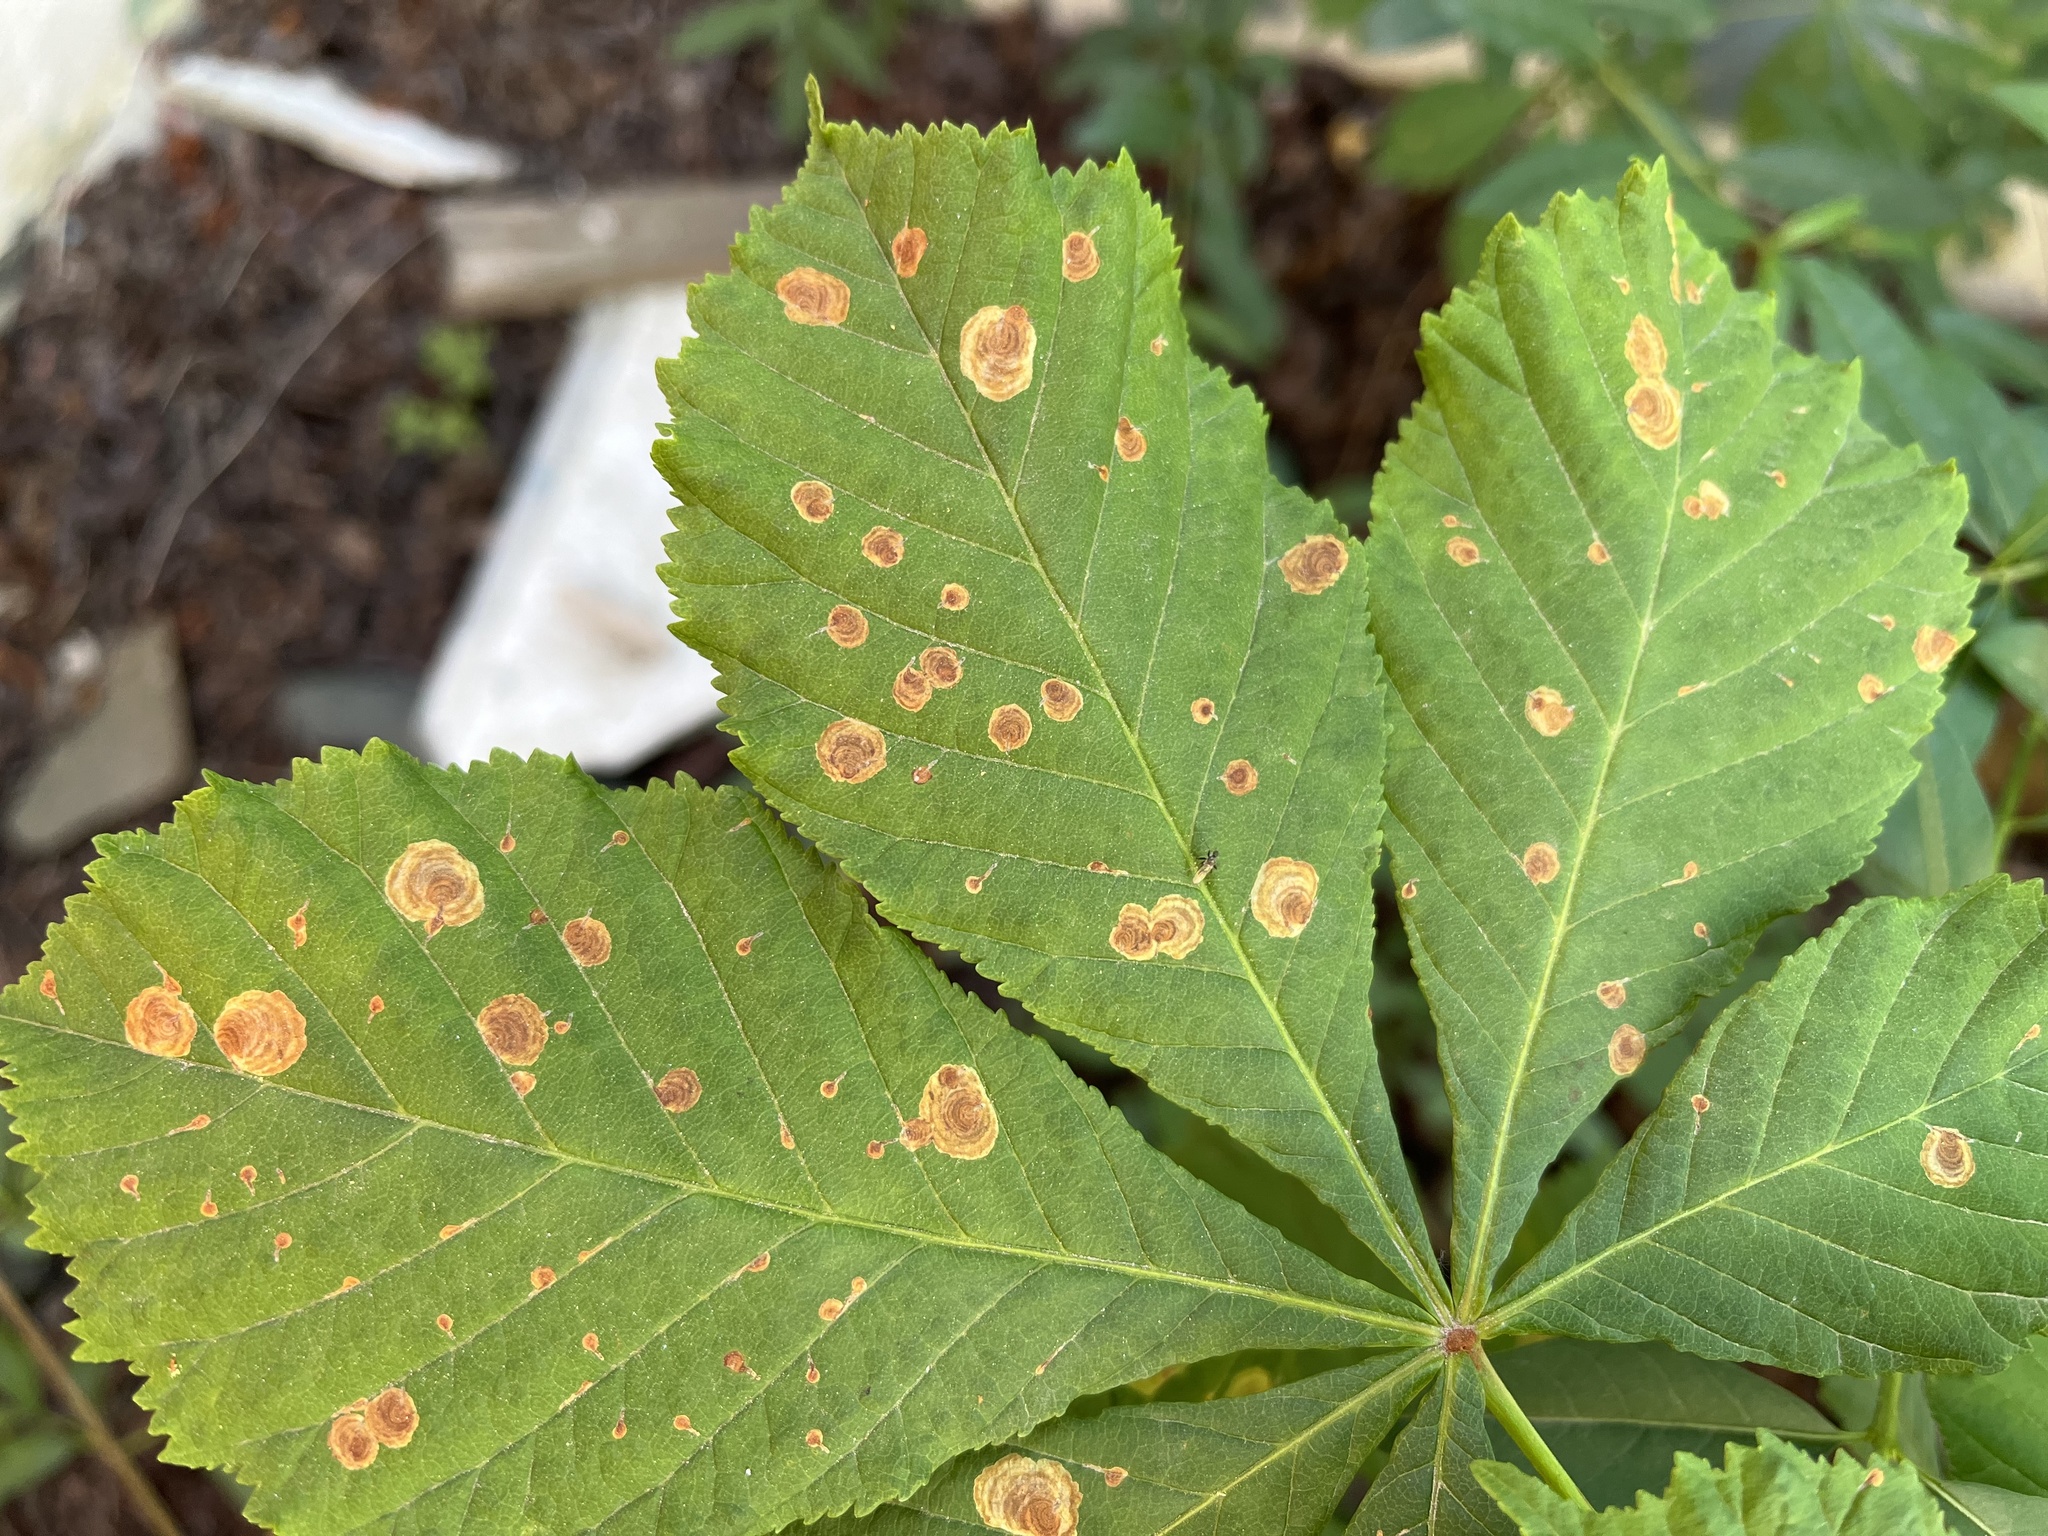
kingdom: Animalia
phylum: Arthropoda
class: Insecta
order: Lepidoptera
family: Gracillariidae
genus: Cameraria
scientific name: Cameraria ohridella
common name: Horse-chestnut leaf-miner
